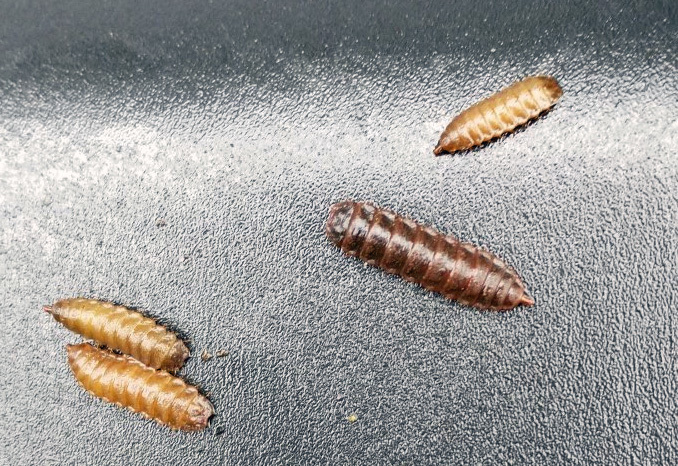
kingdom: Animalia
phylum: Arthropoda
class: Insecta
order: Diptera
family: Stratiomyidae
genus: Hermetia
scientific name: Hermetia illucens
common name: Black soldier fly
